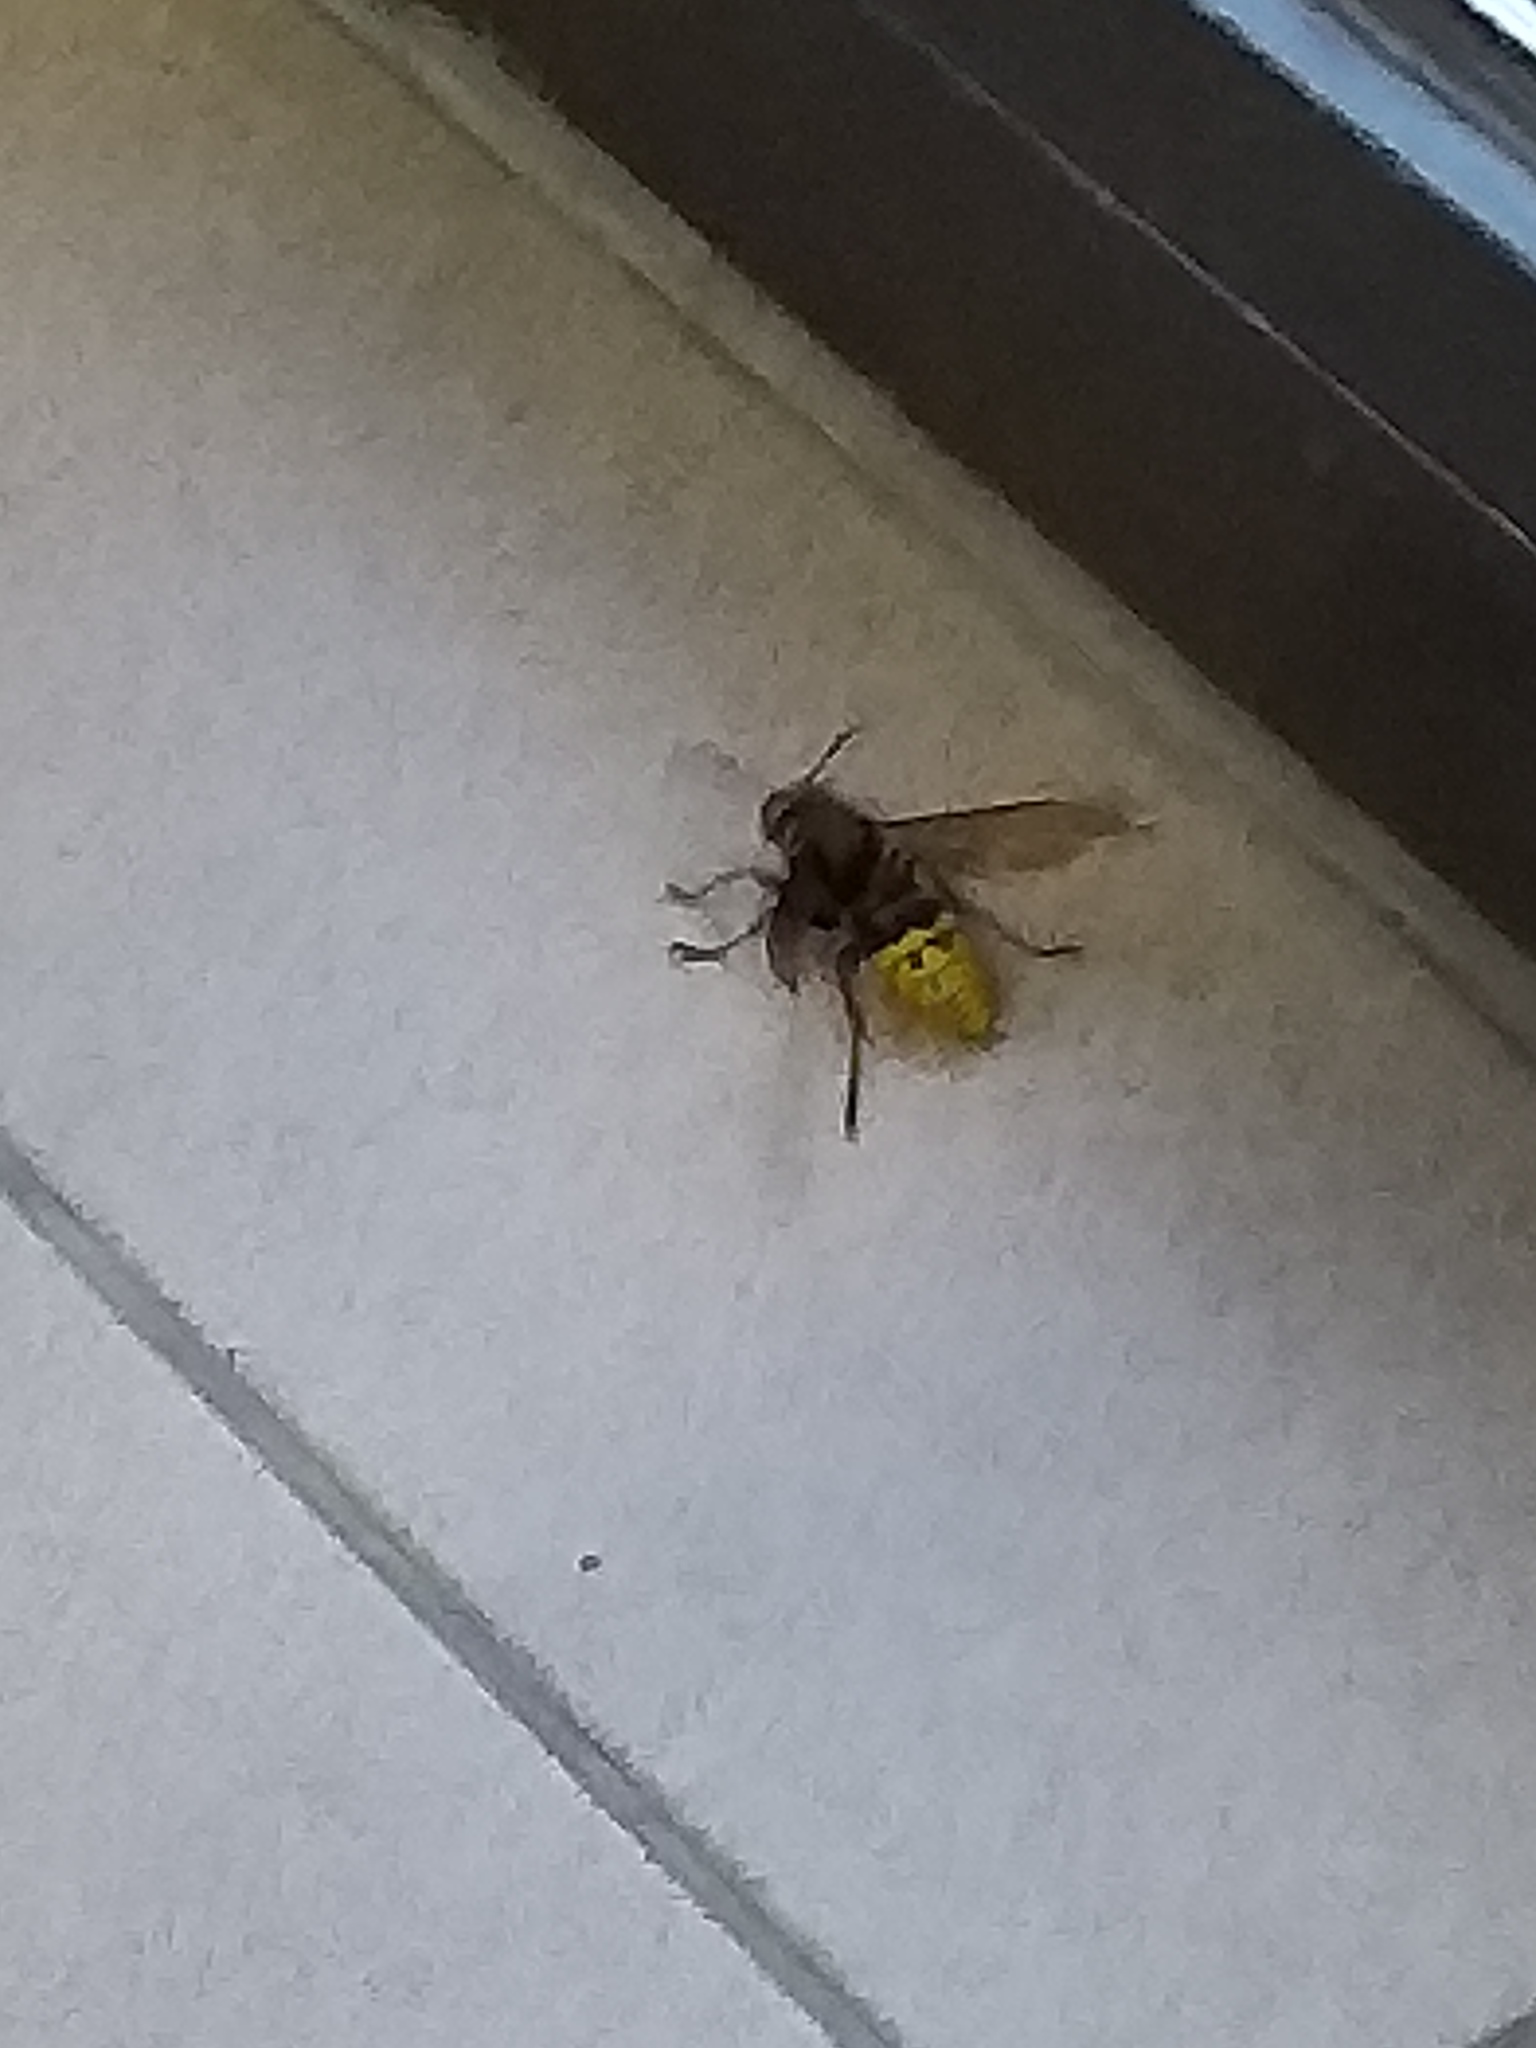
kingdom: Animalia
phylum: Arthropoda
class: Insecta
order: Hymenoptera
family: Vespidae
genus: Vespa
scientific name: Vespa crabro
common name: Hornet
